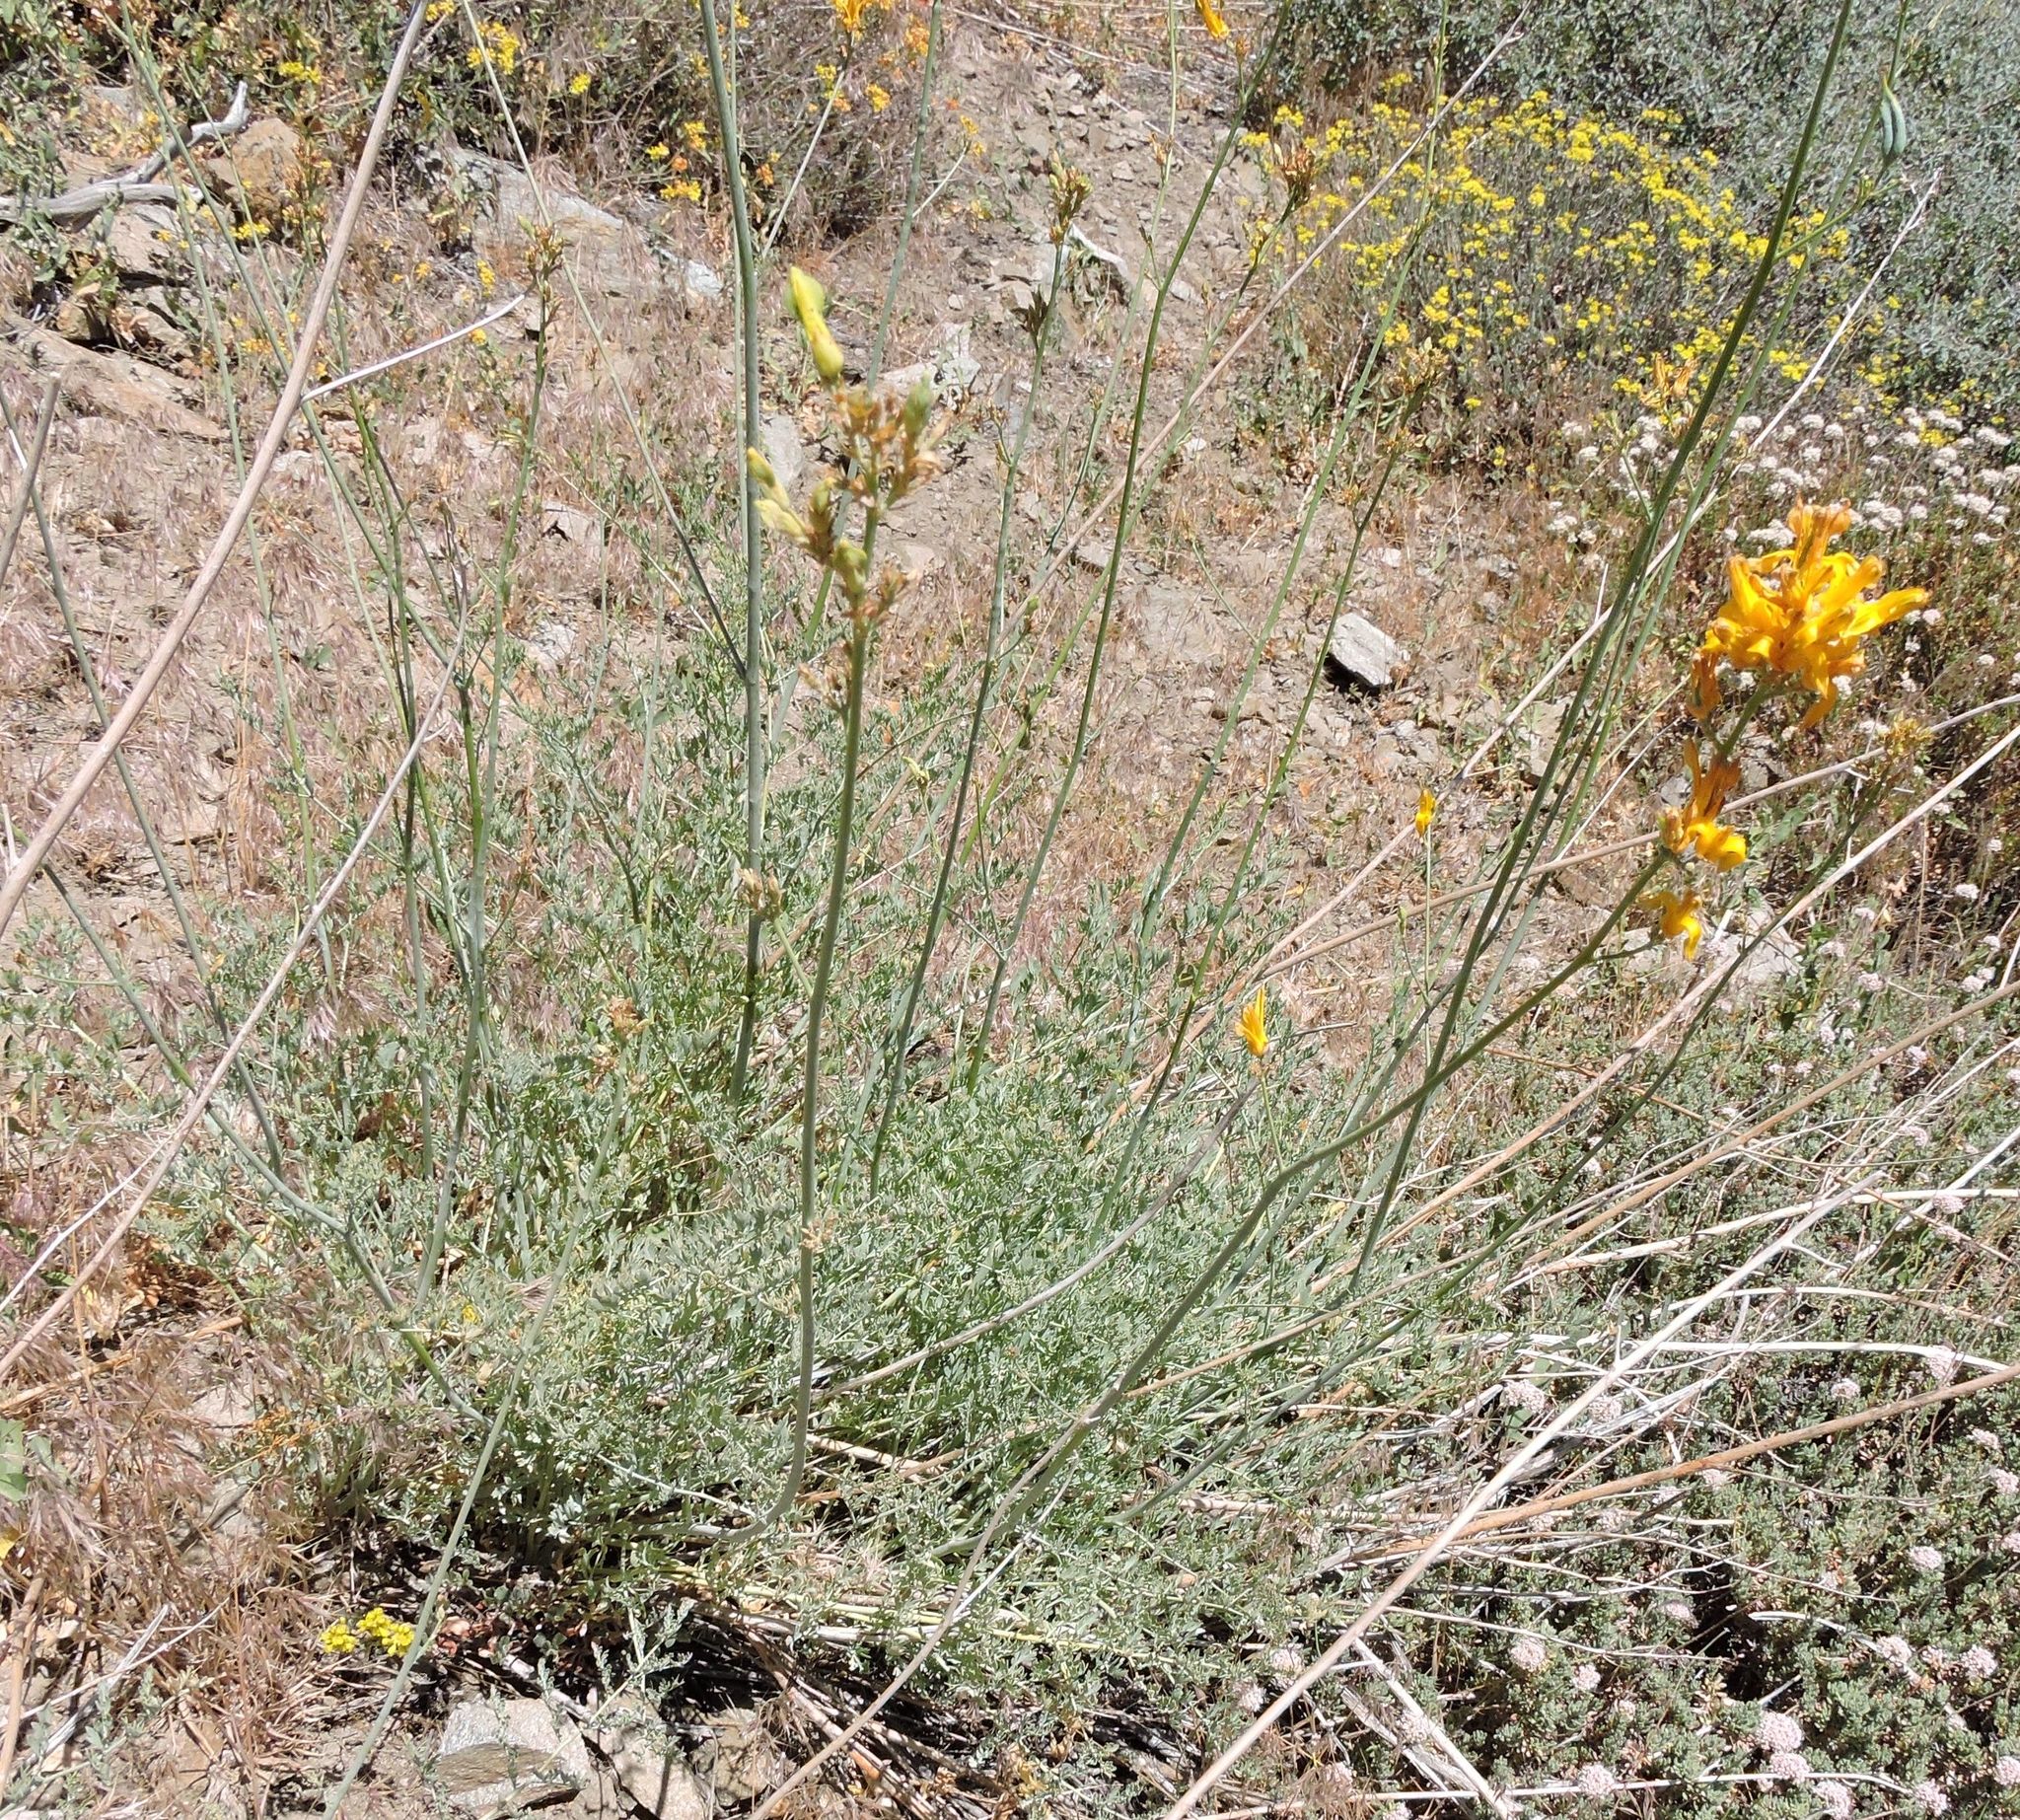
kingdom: Plantae
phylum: Tracheophyta
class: Magnoliopsida
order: Ranunculales
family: Papaveraceae
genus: Ehrendorferia
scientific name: Ehrendorferia chrysantha
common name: Golden eardrops
